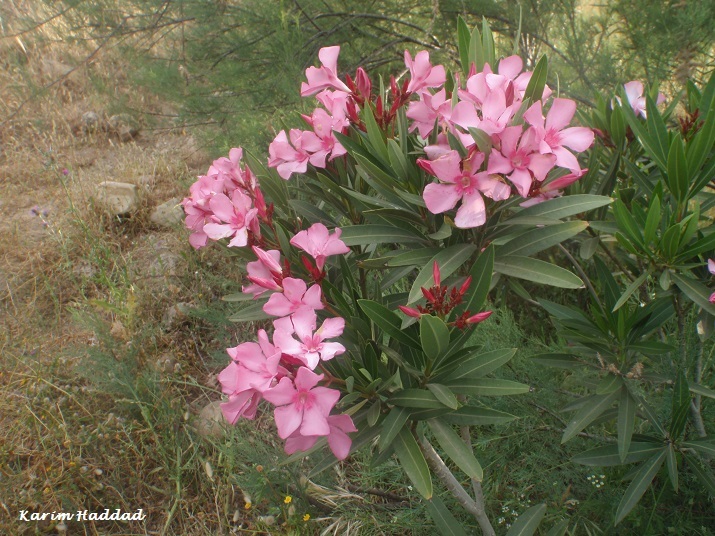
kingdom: Plantae
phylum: Tracheophyta
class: Magnoliopsida
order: Gentianales
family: Apocynaceae
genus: Nerium
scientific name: Nerium oleander
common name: Oleander
